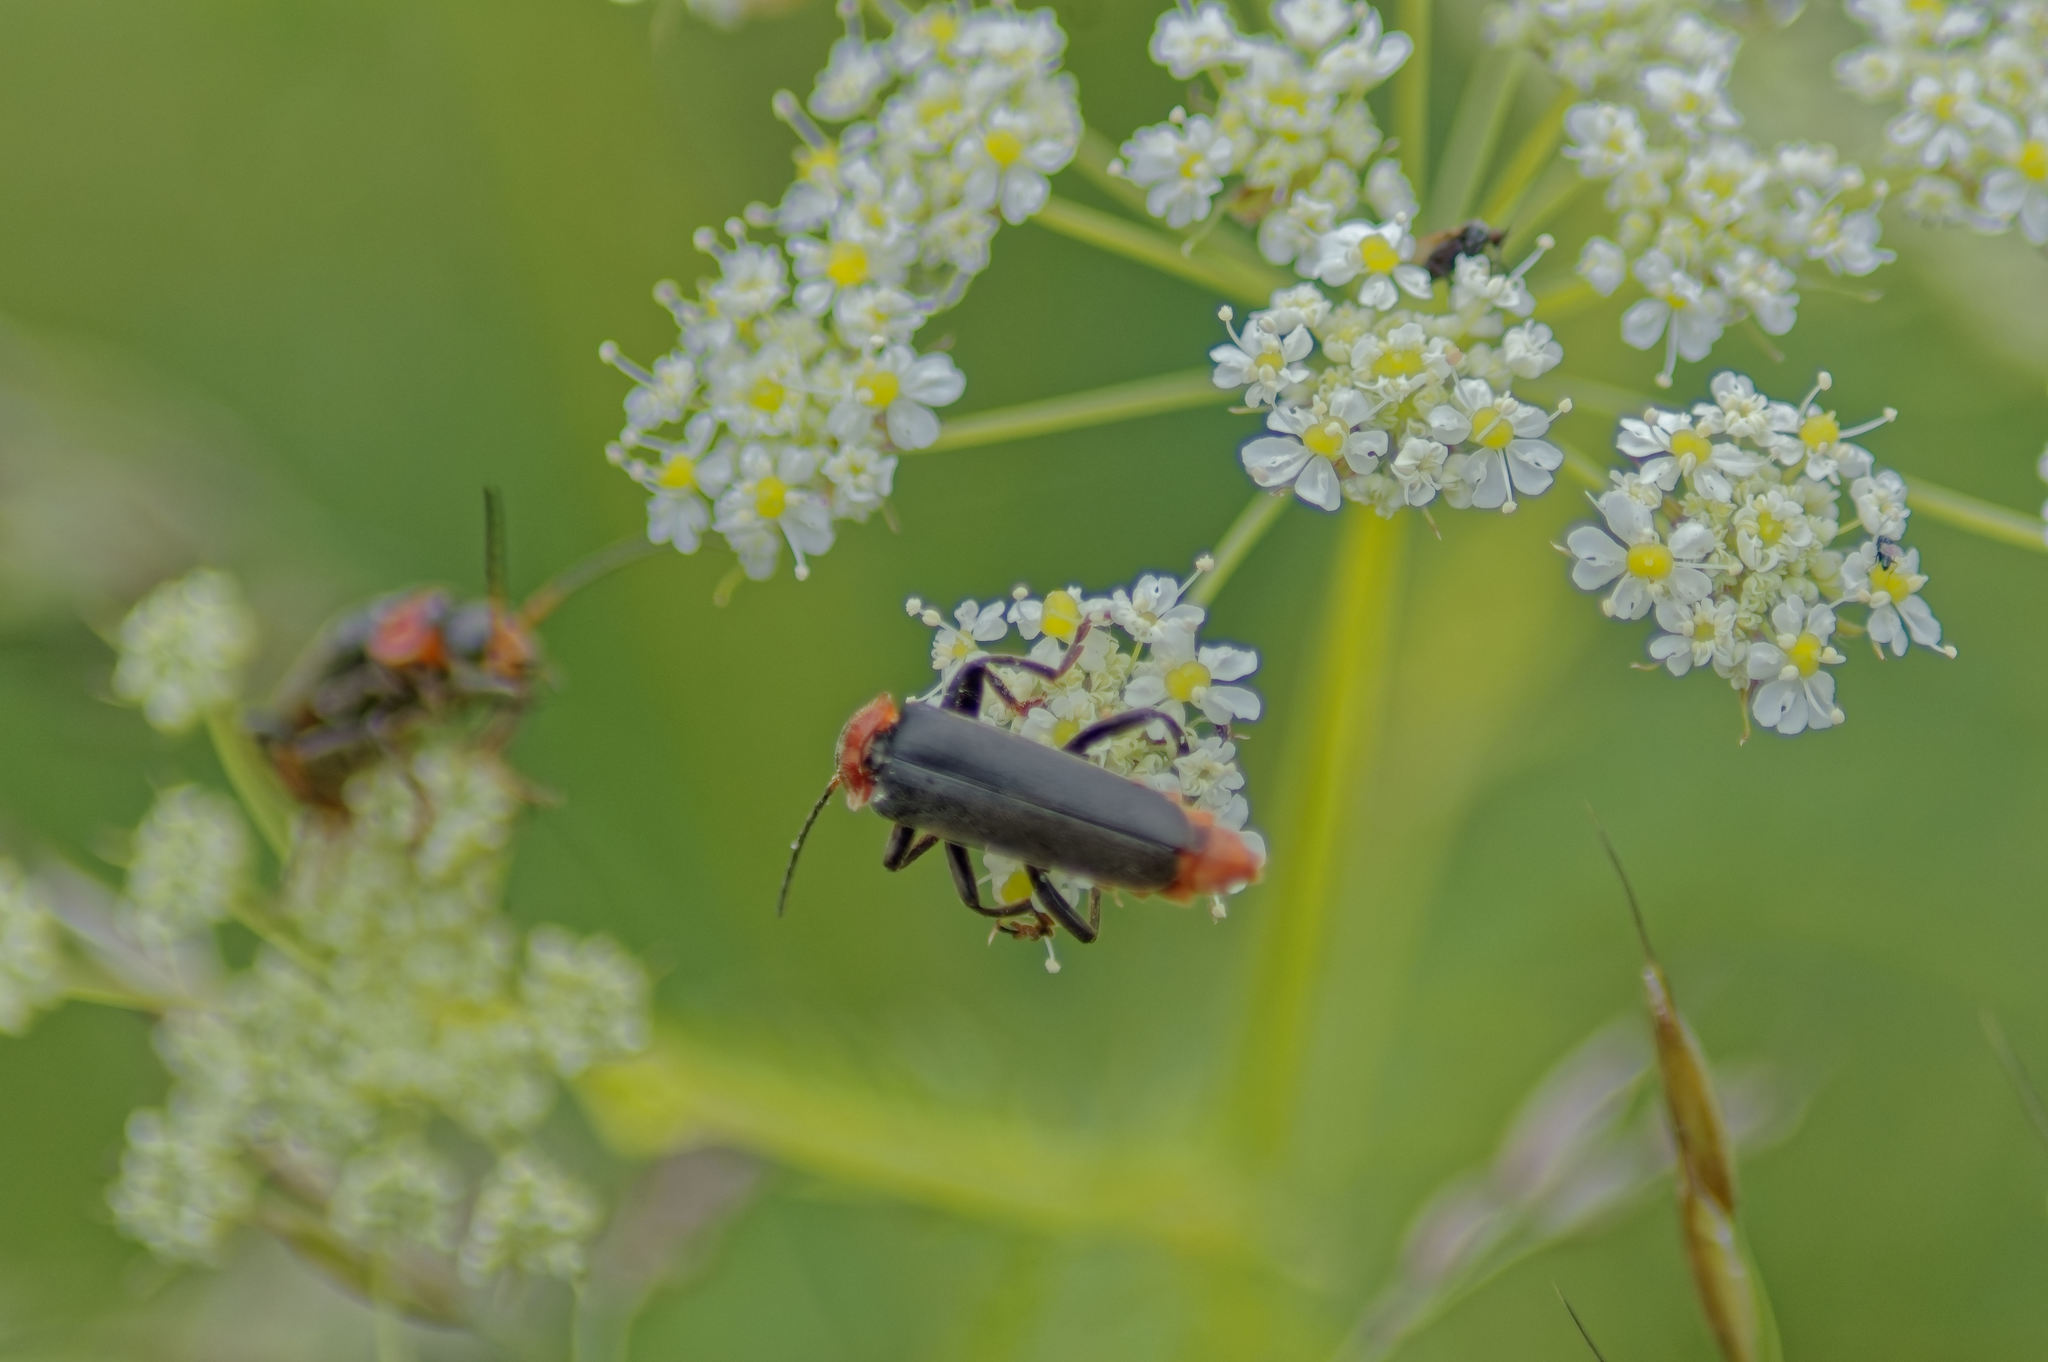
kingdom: Animalia
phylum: Arthropoda
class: Insecta
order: Coleoptera
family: Cantharidae
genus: Cantharis
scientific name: Cantharis fusca
